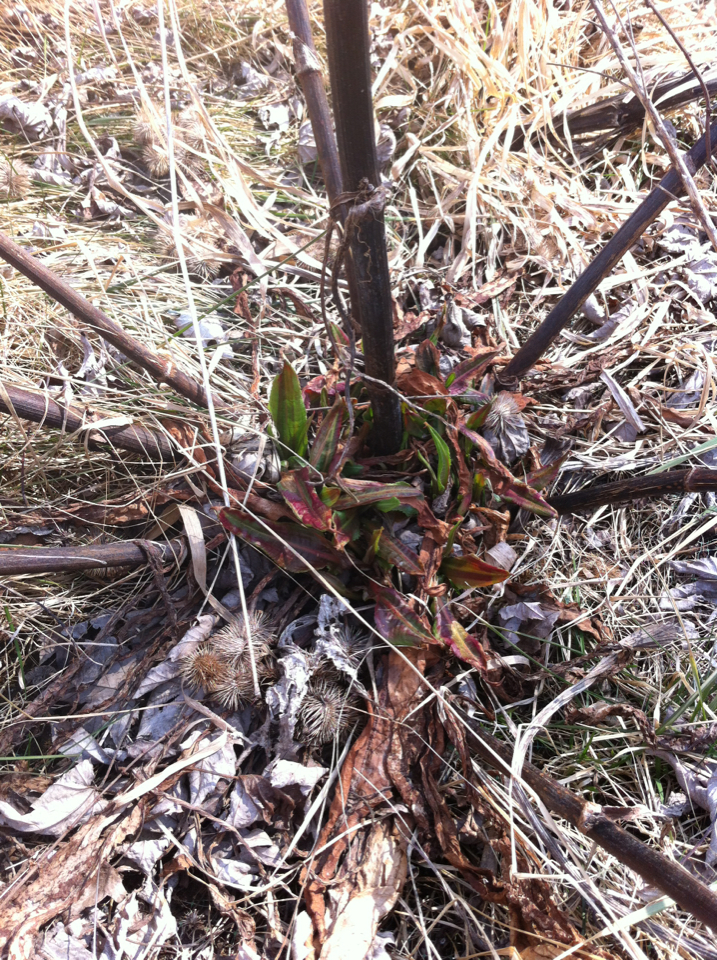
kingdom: Plantae
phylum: Tracheophyta
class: Magnoliopsida
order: Caryophyllales
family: Polygonaceae
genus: Rumex
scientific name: Rumex crispus
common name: Curled dock
